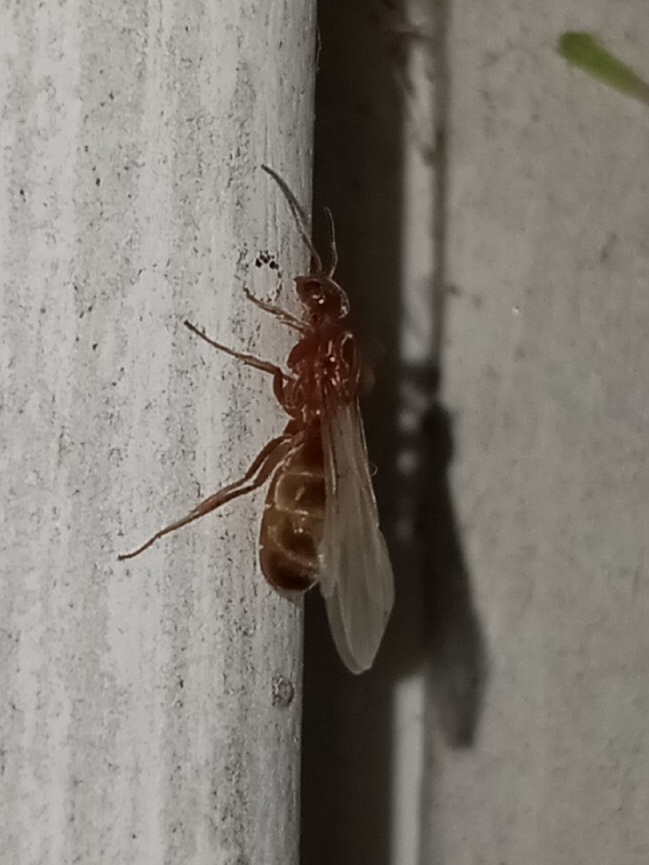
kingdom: Animalia
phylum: Arthropoda
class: Insecta
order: Hymenoptera
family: Formicidae
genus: Dorymyrmex
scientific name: Dorymyrmex bureni
